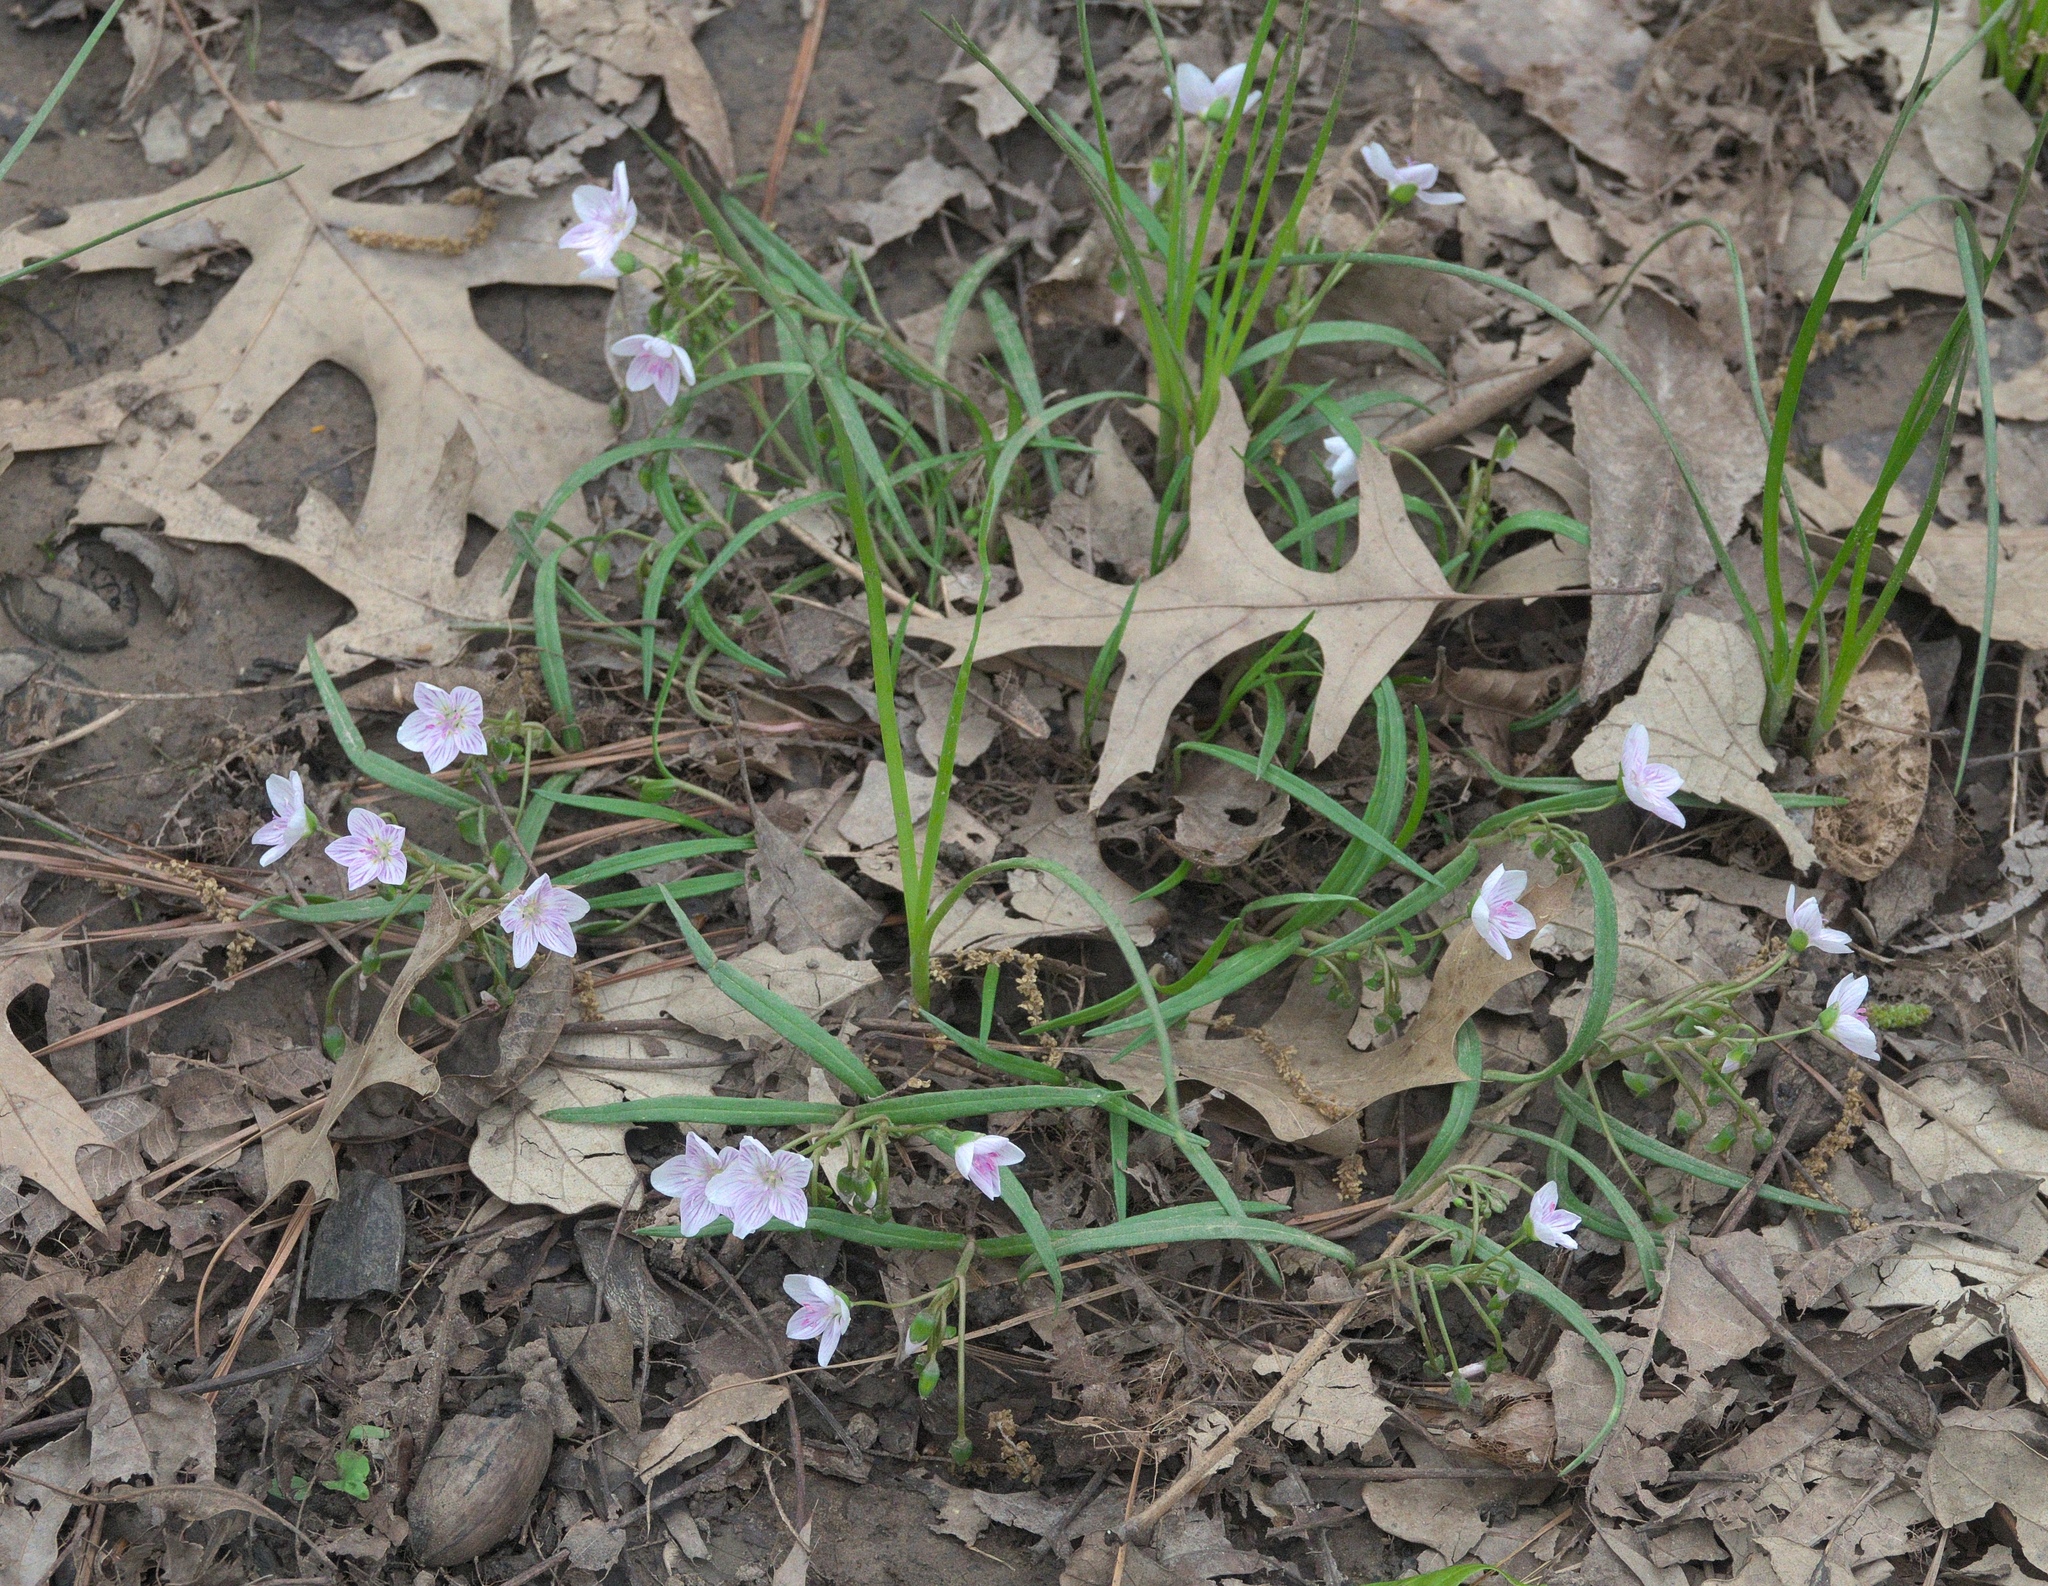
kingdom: Plantae
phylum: Tracheophyta
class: Magnoliopsida
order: Caryophyllales
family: Montiaceae
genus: Claytonia
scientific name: Claytonia virginica
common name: Virginia springbeauty
